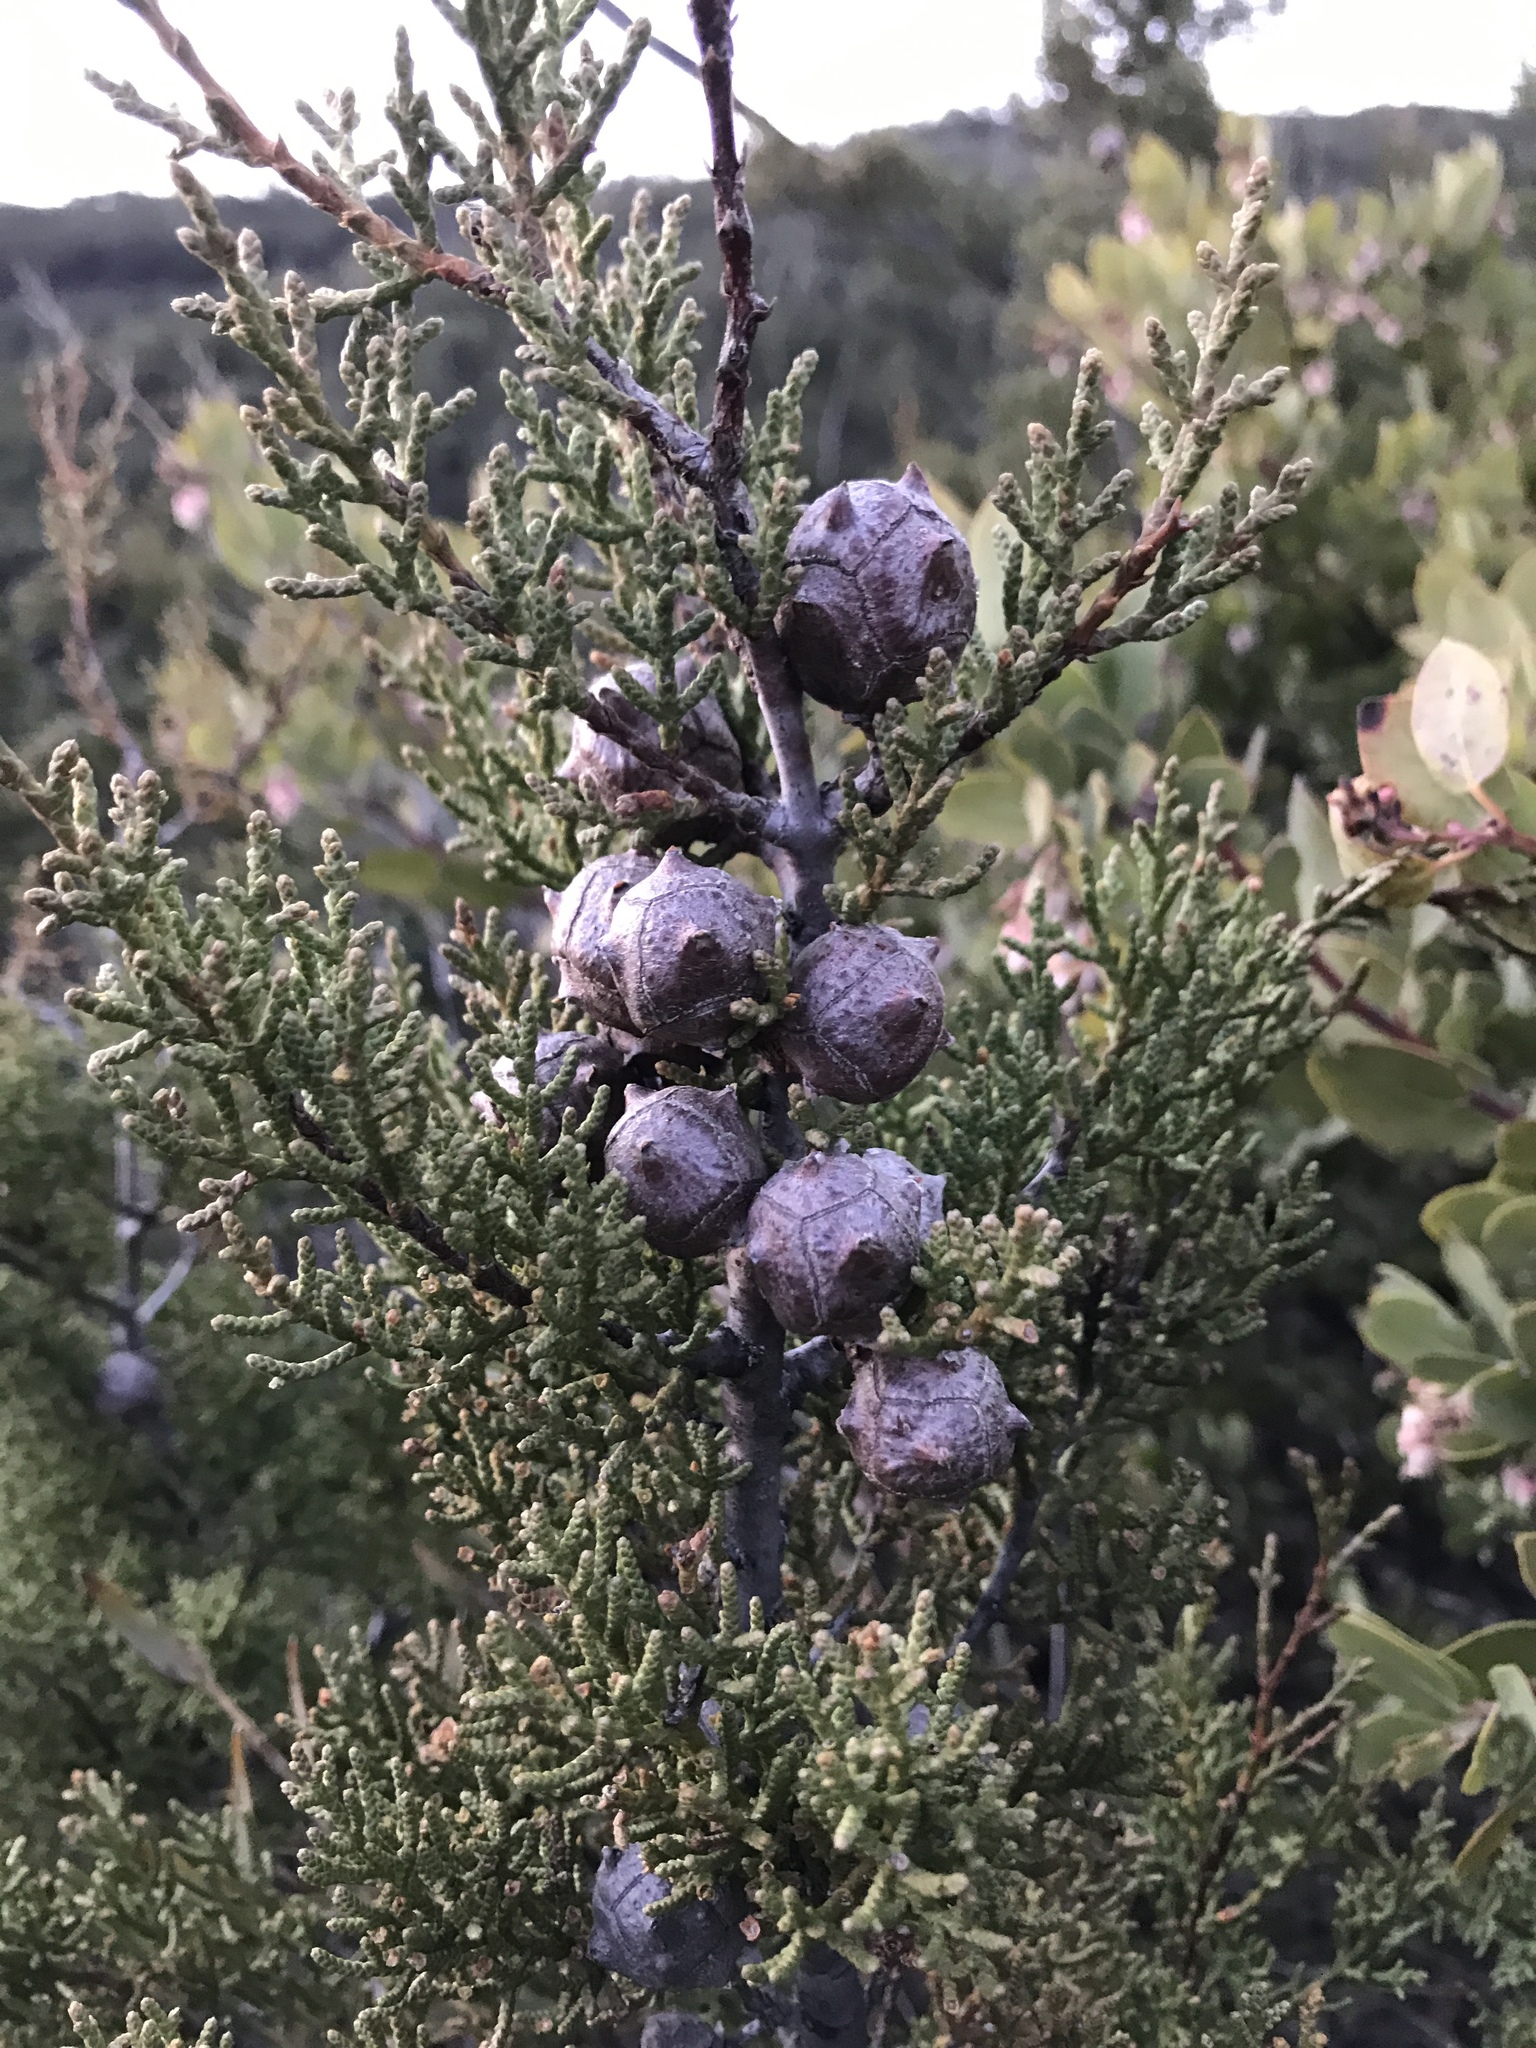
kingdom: Plantae
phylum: Tracheophyta
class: Pinopsida
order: Pinales
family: Cupressaceae
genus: Cupressus
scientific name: Cupressus sargentii
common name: Sargent cypress
